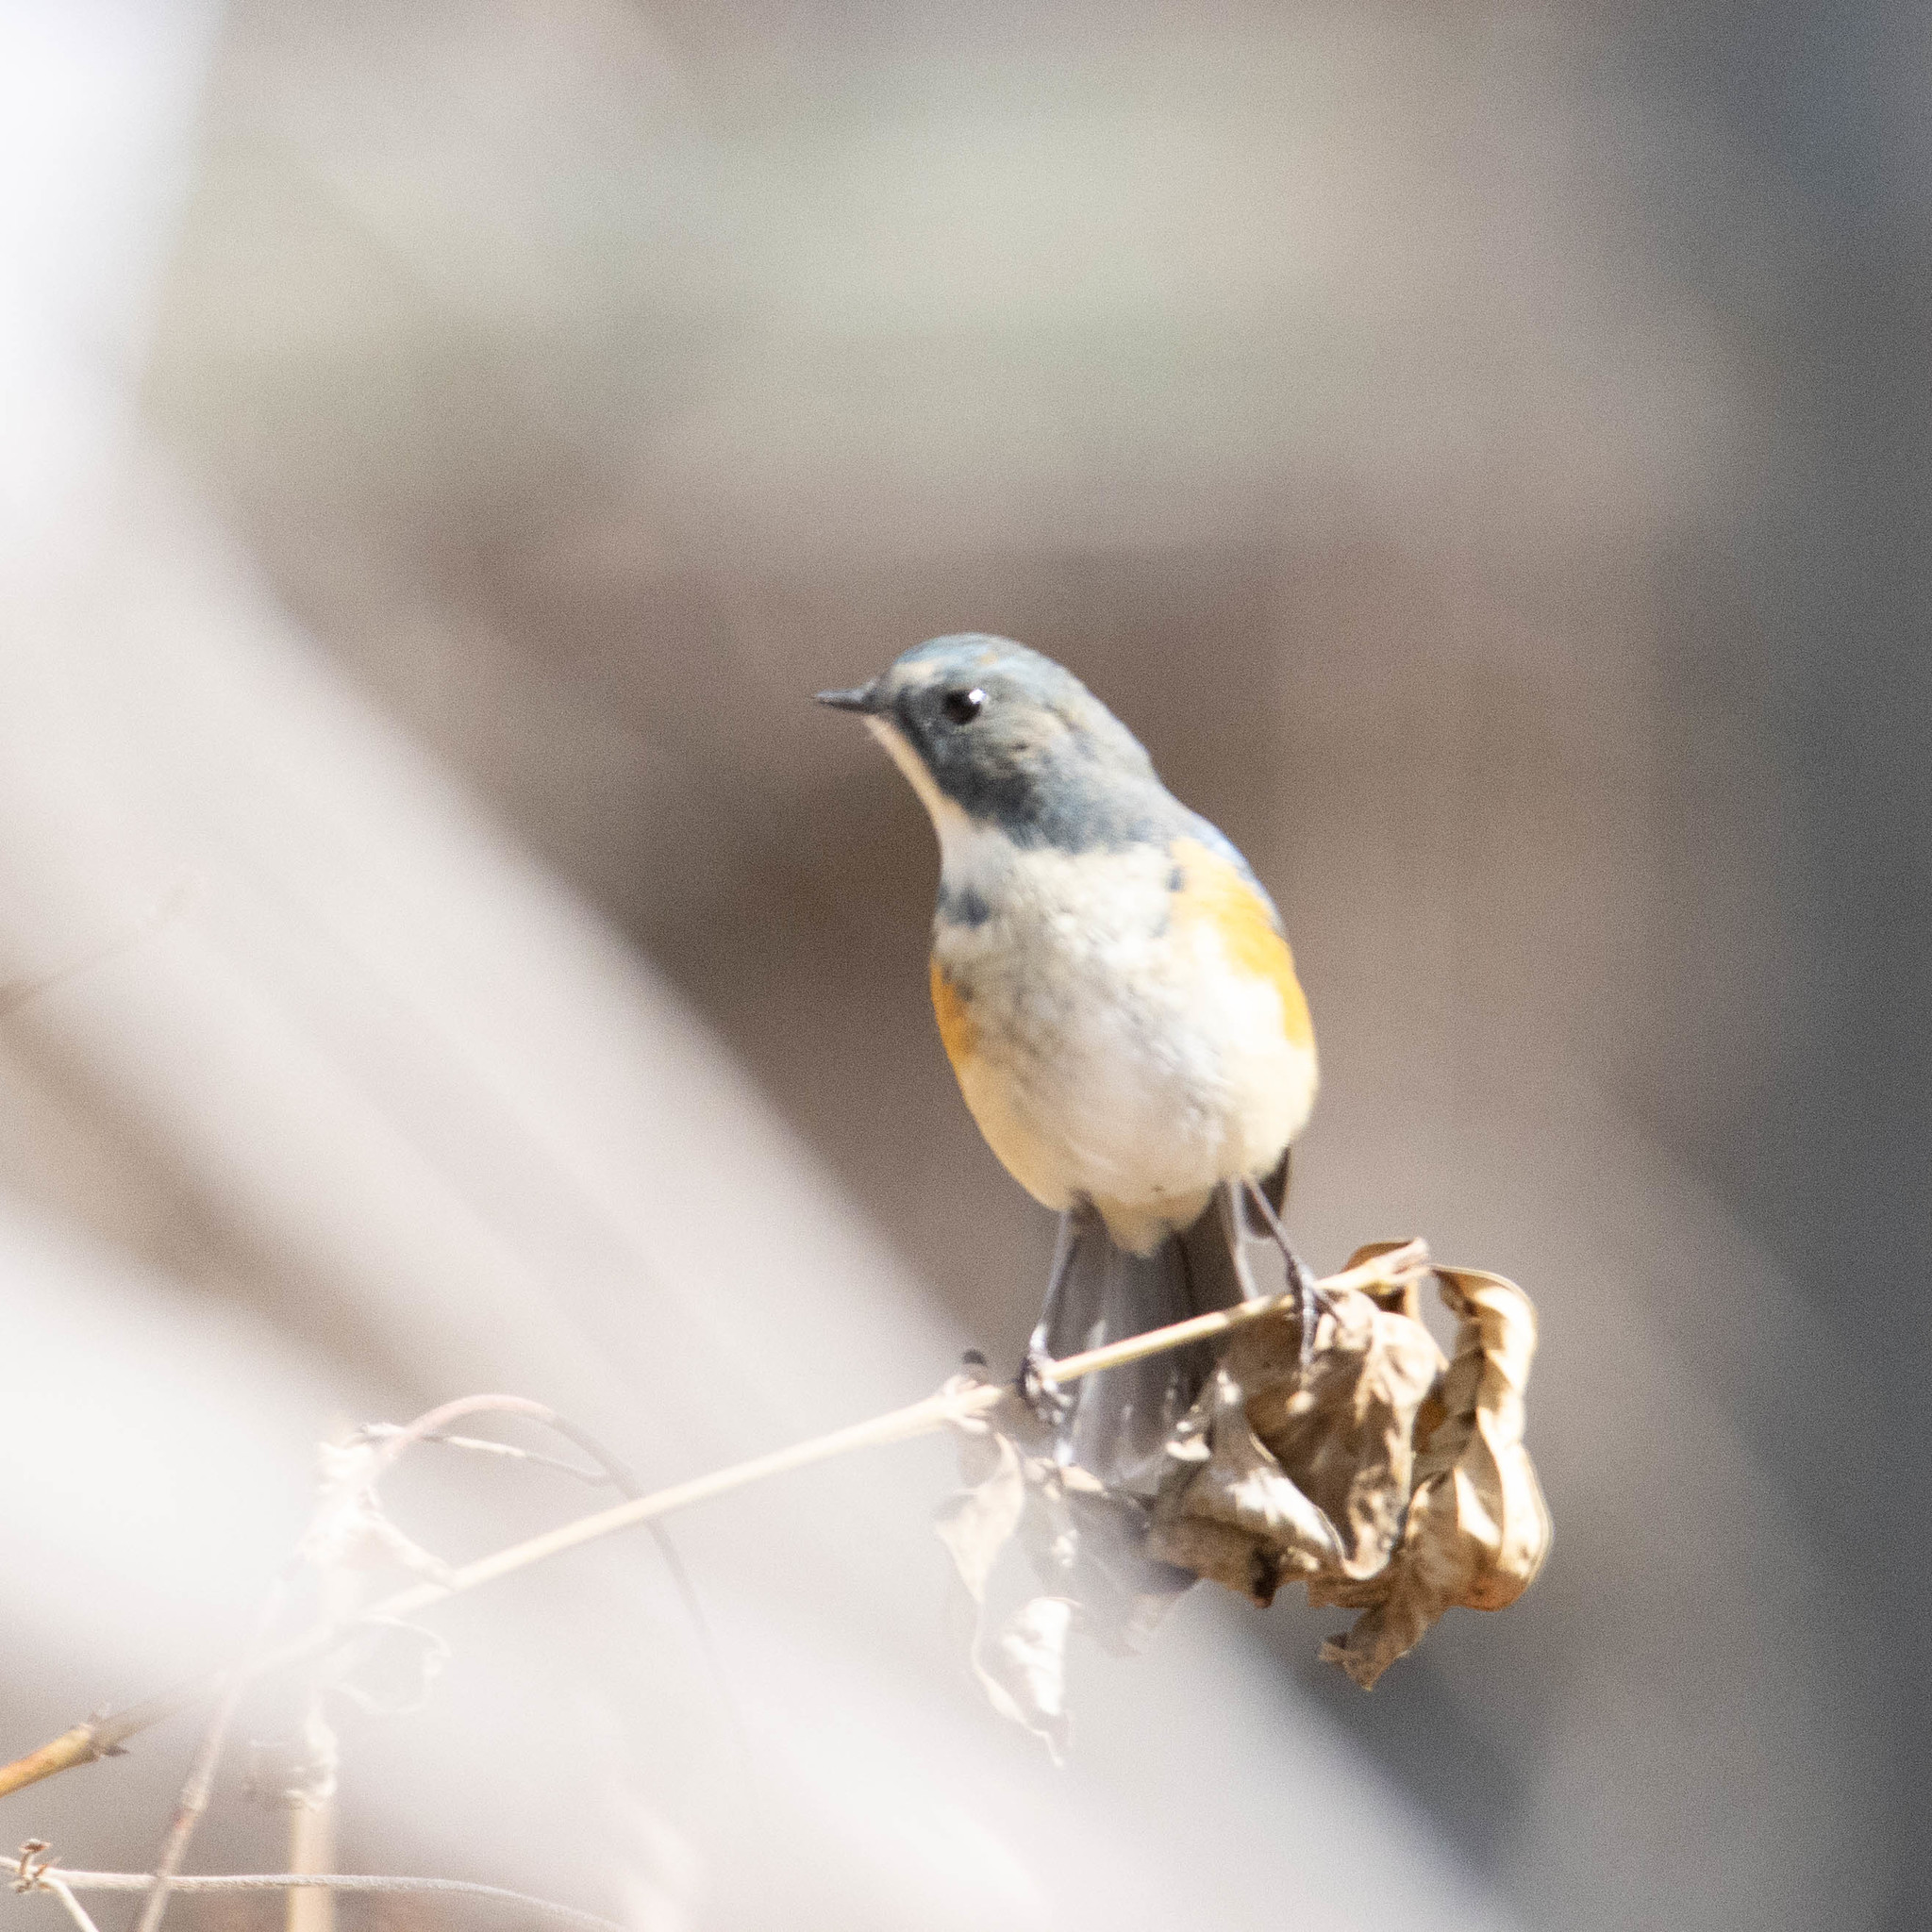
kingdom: Animalia
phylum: Chordata
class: Aves
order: Passeriformes
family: Muscicapidae
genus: Tarsiger
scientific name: Tarsiger cyanurus
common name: Red-flanked bluetail
